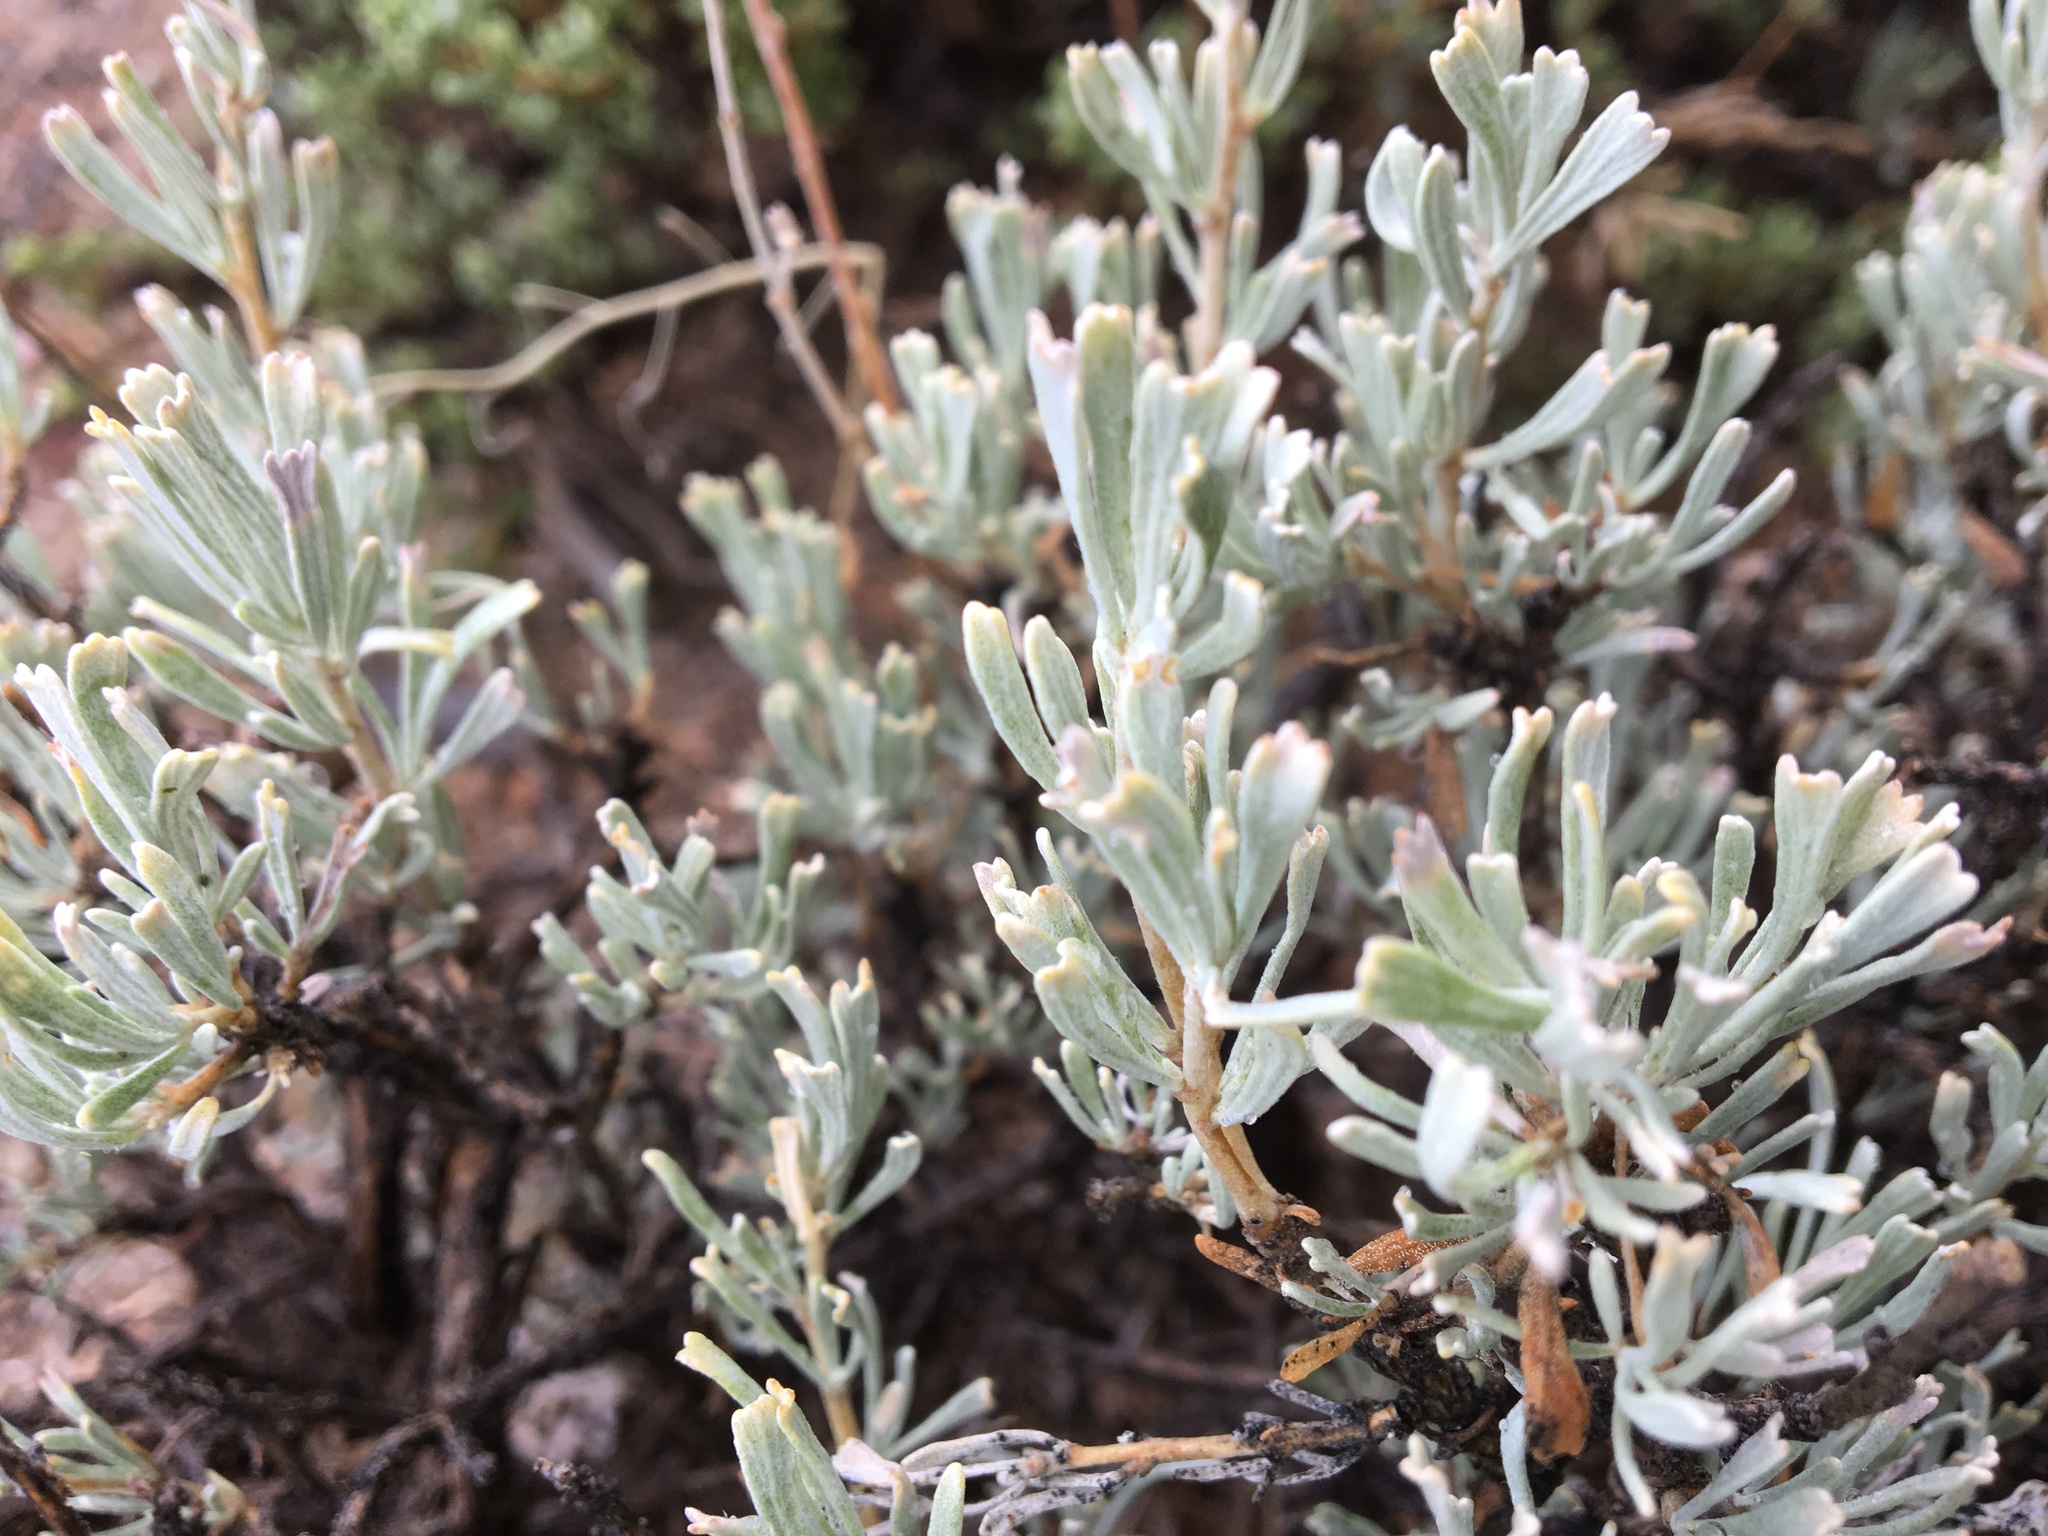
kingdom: Plantae
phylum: Tracheophyta
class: Magnoliopsida
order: Asterales
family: Asteraceae
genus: Artemisia
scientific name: Artemisia tridentata
